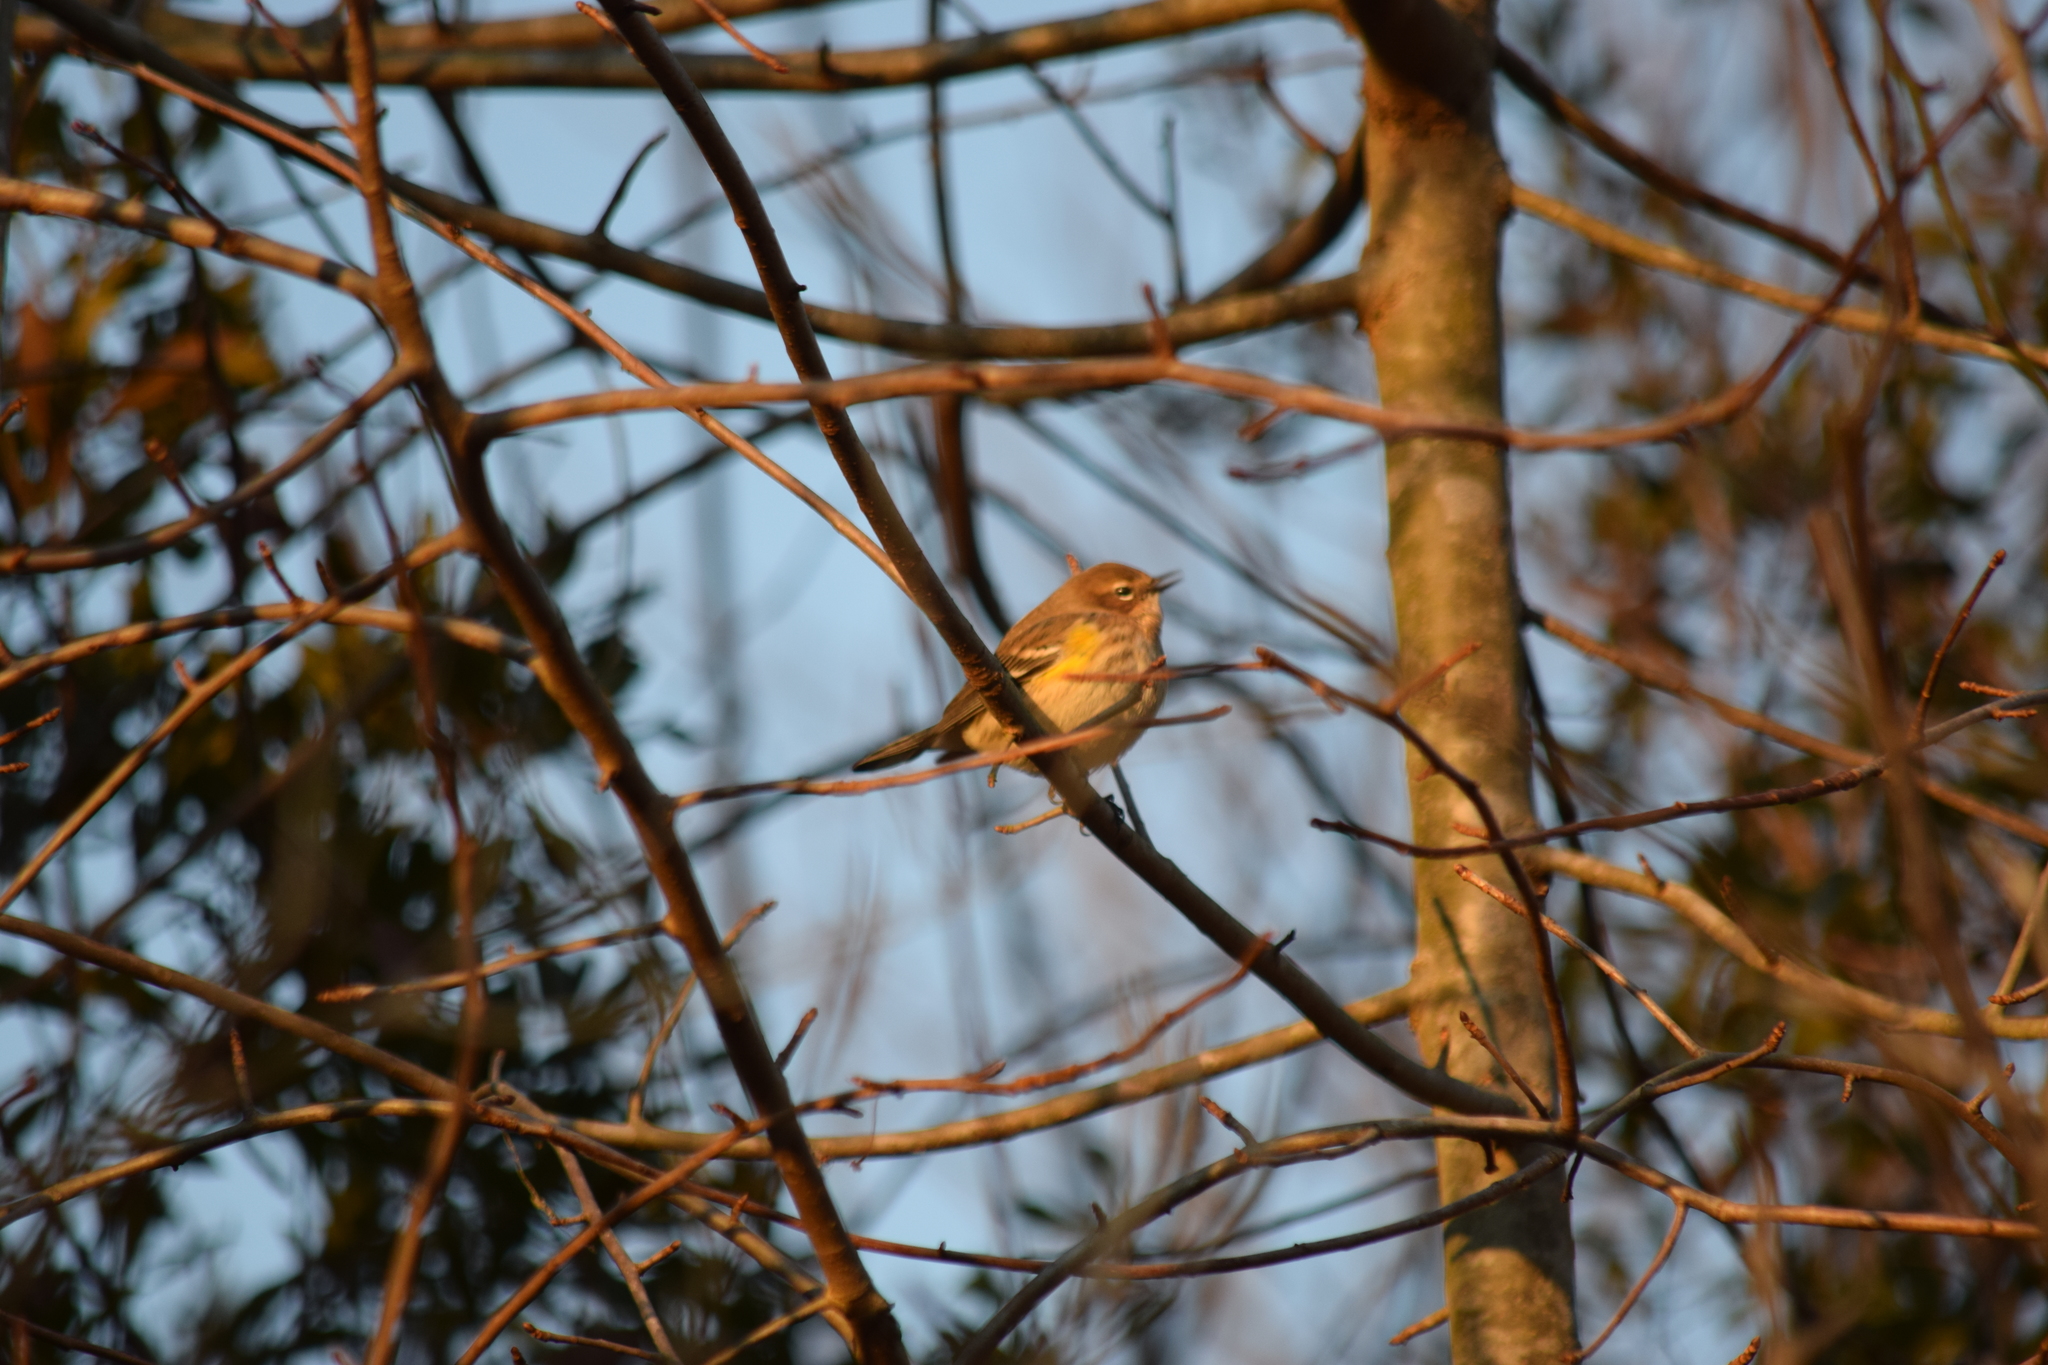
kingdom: Animalia
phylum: Chordata
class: Aves
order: Passeriformes
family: Parulidae
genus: Setophaga
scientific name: Setophaga coronata
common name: Myrtle warbler
